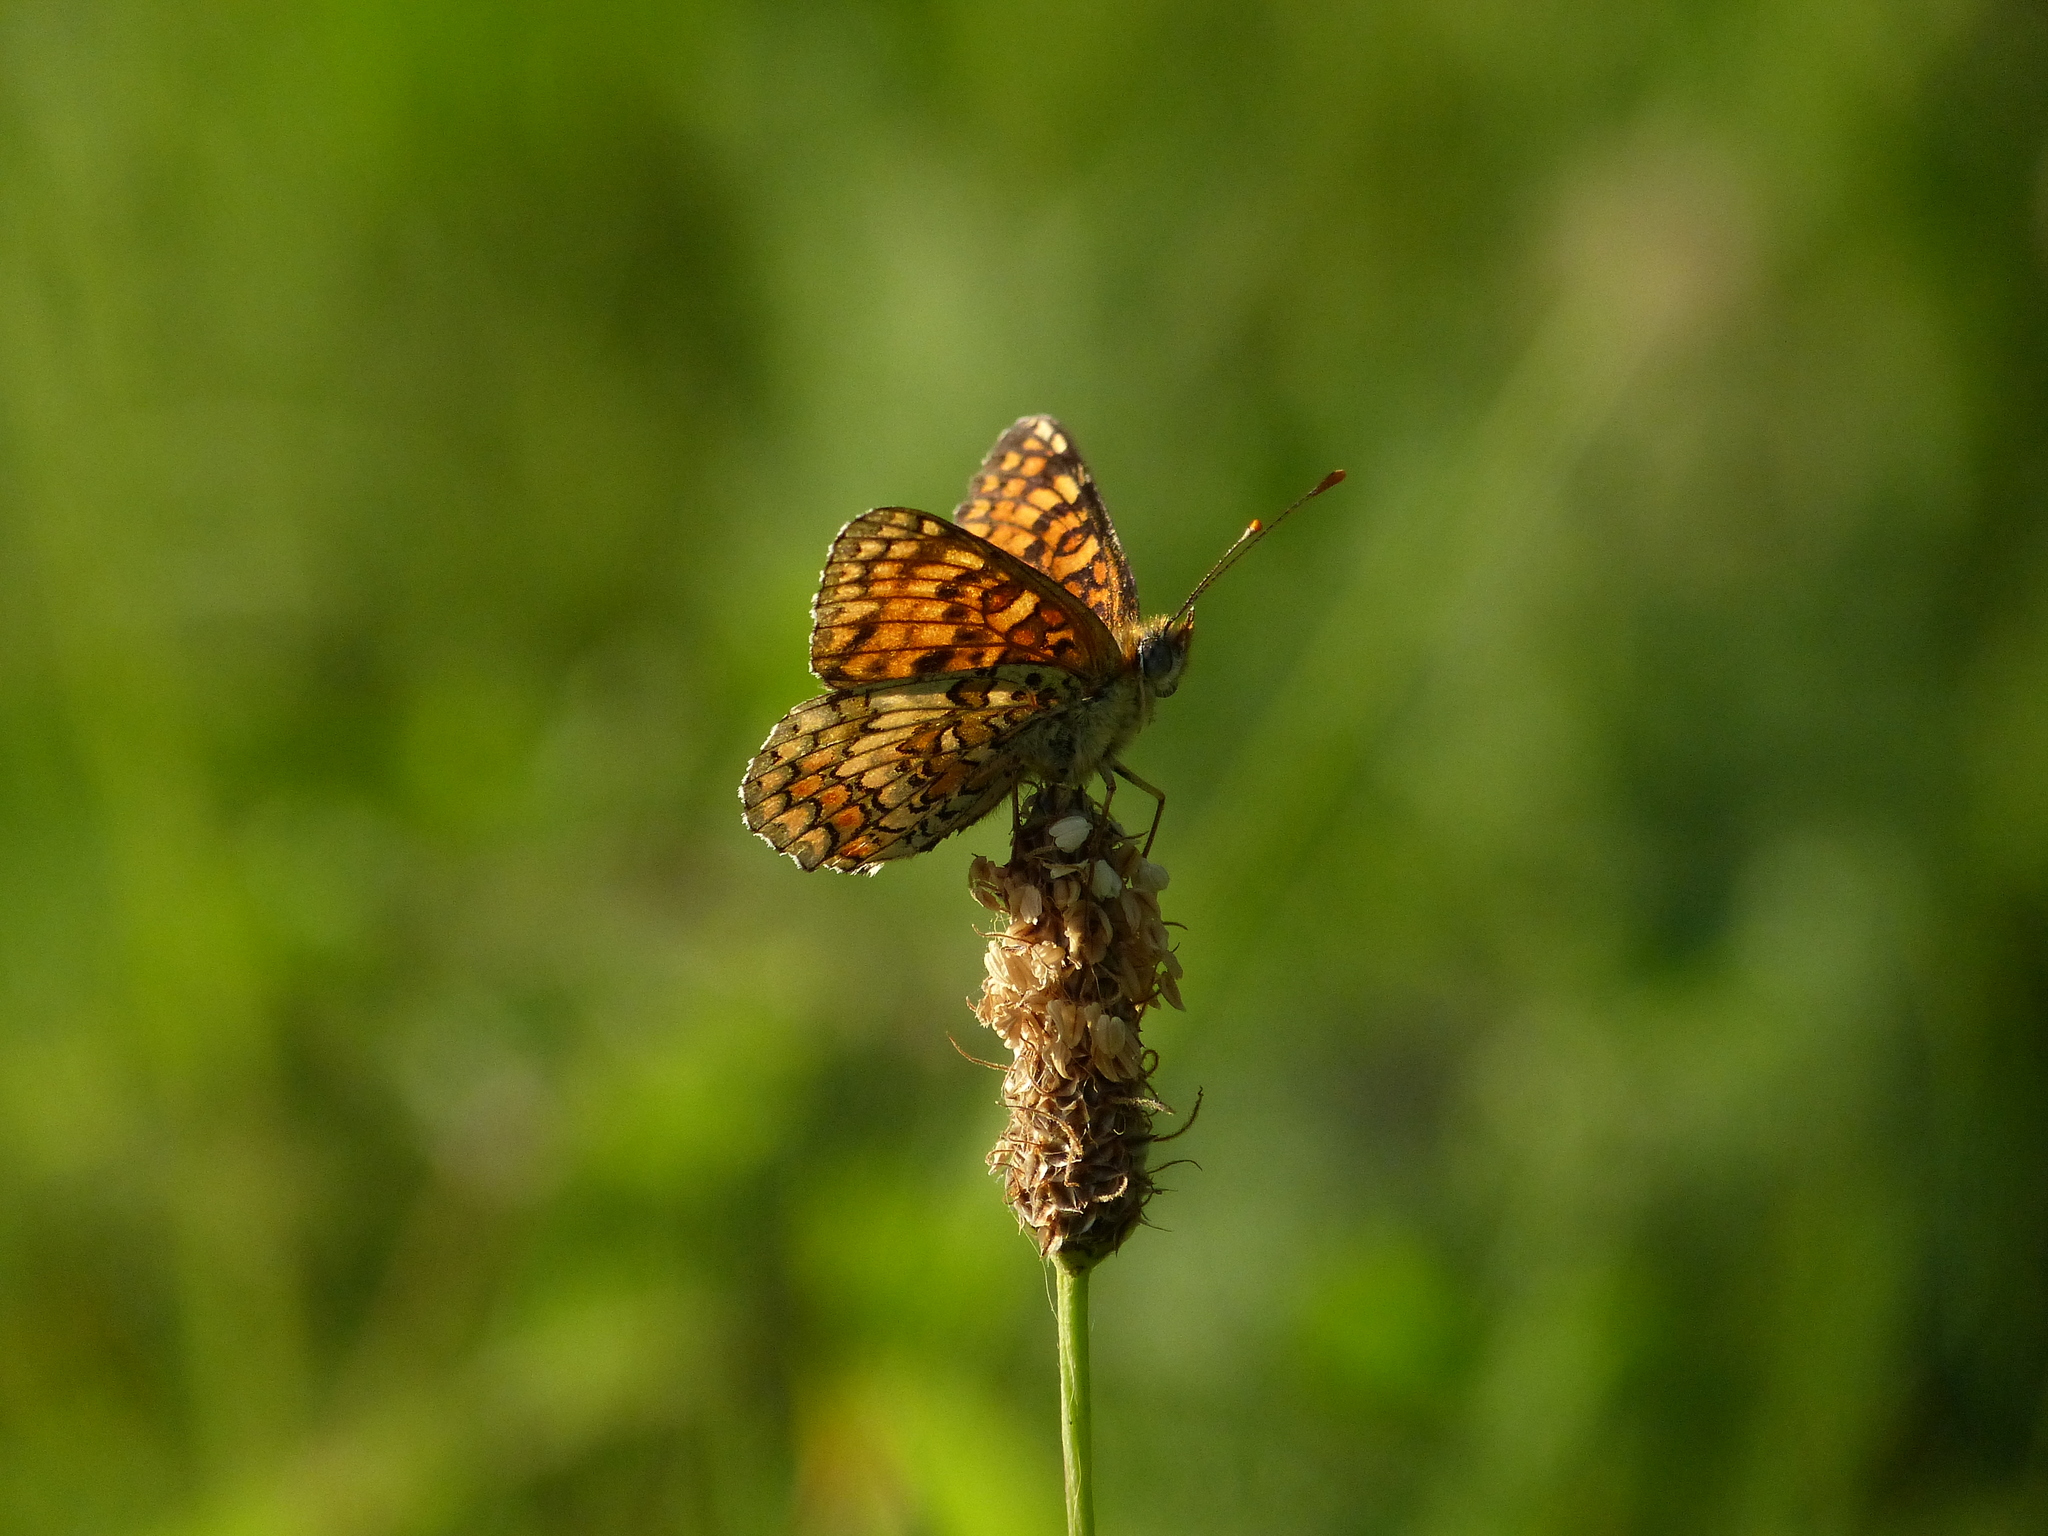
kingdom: Animalia
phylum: Arthropoda
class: Insecta
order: Lepidoptera
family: Nymphalidae
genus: Melitaea
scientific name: Melitaea phoebe
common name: Knapweed fritillary
